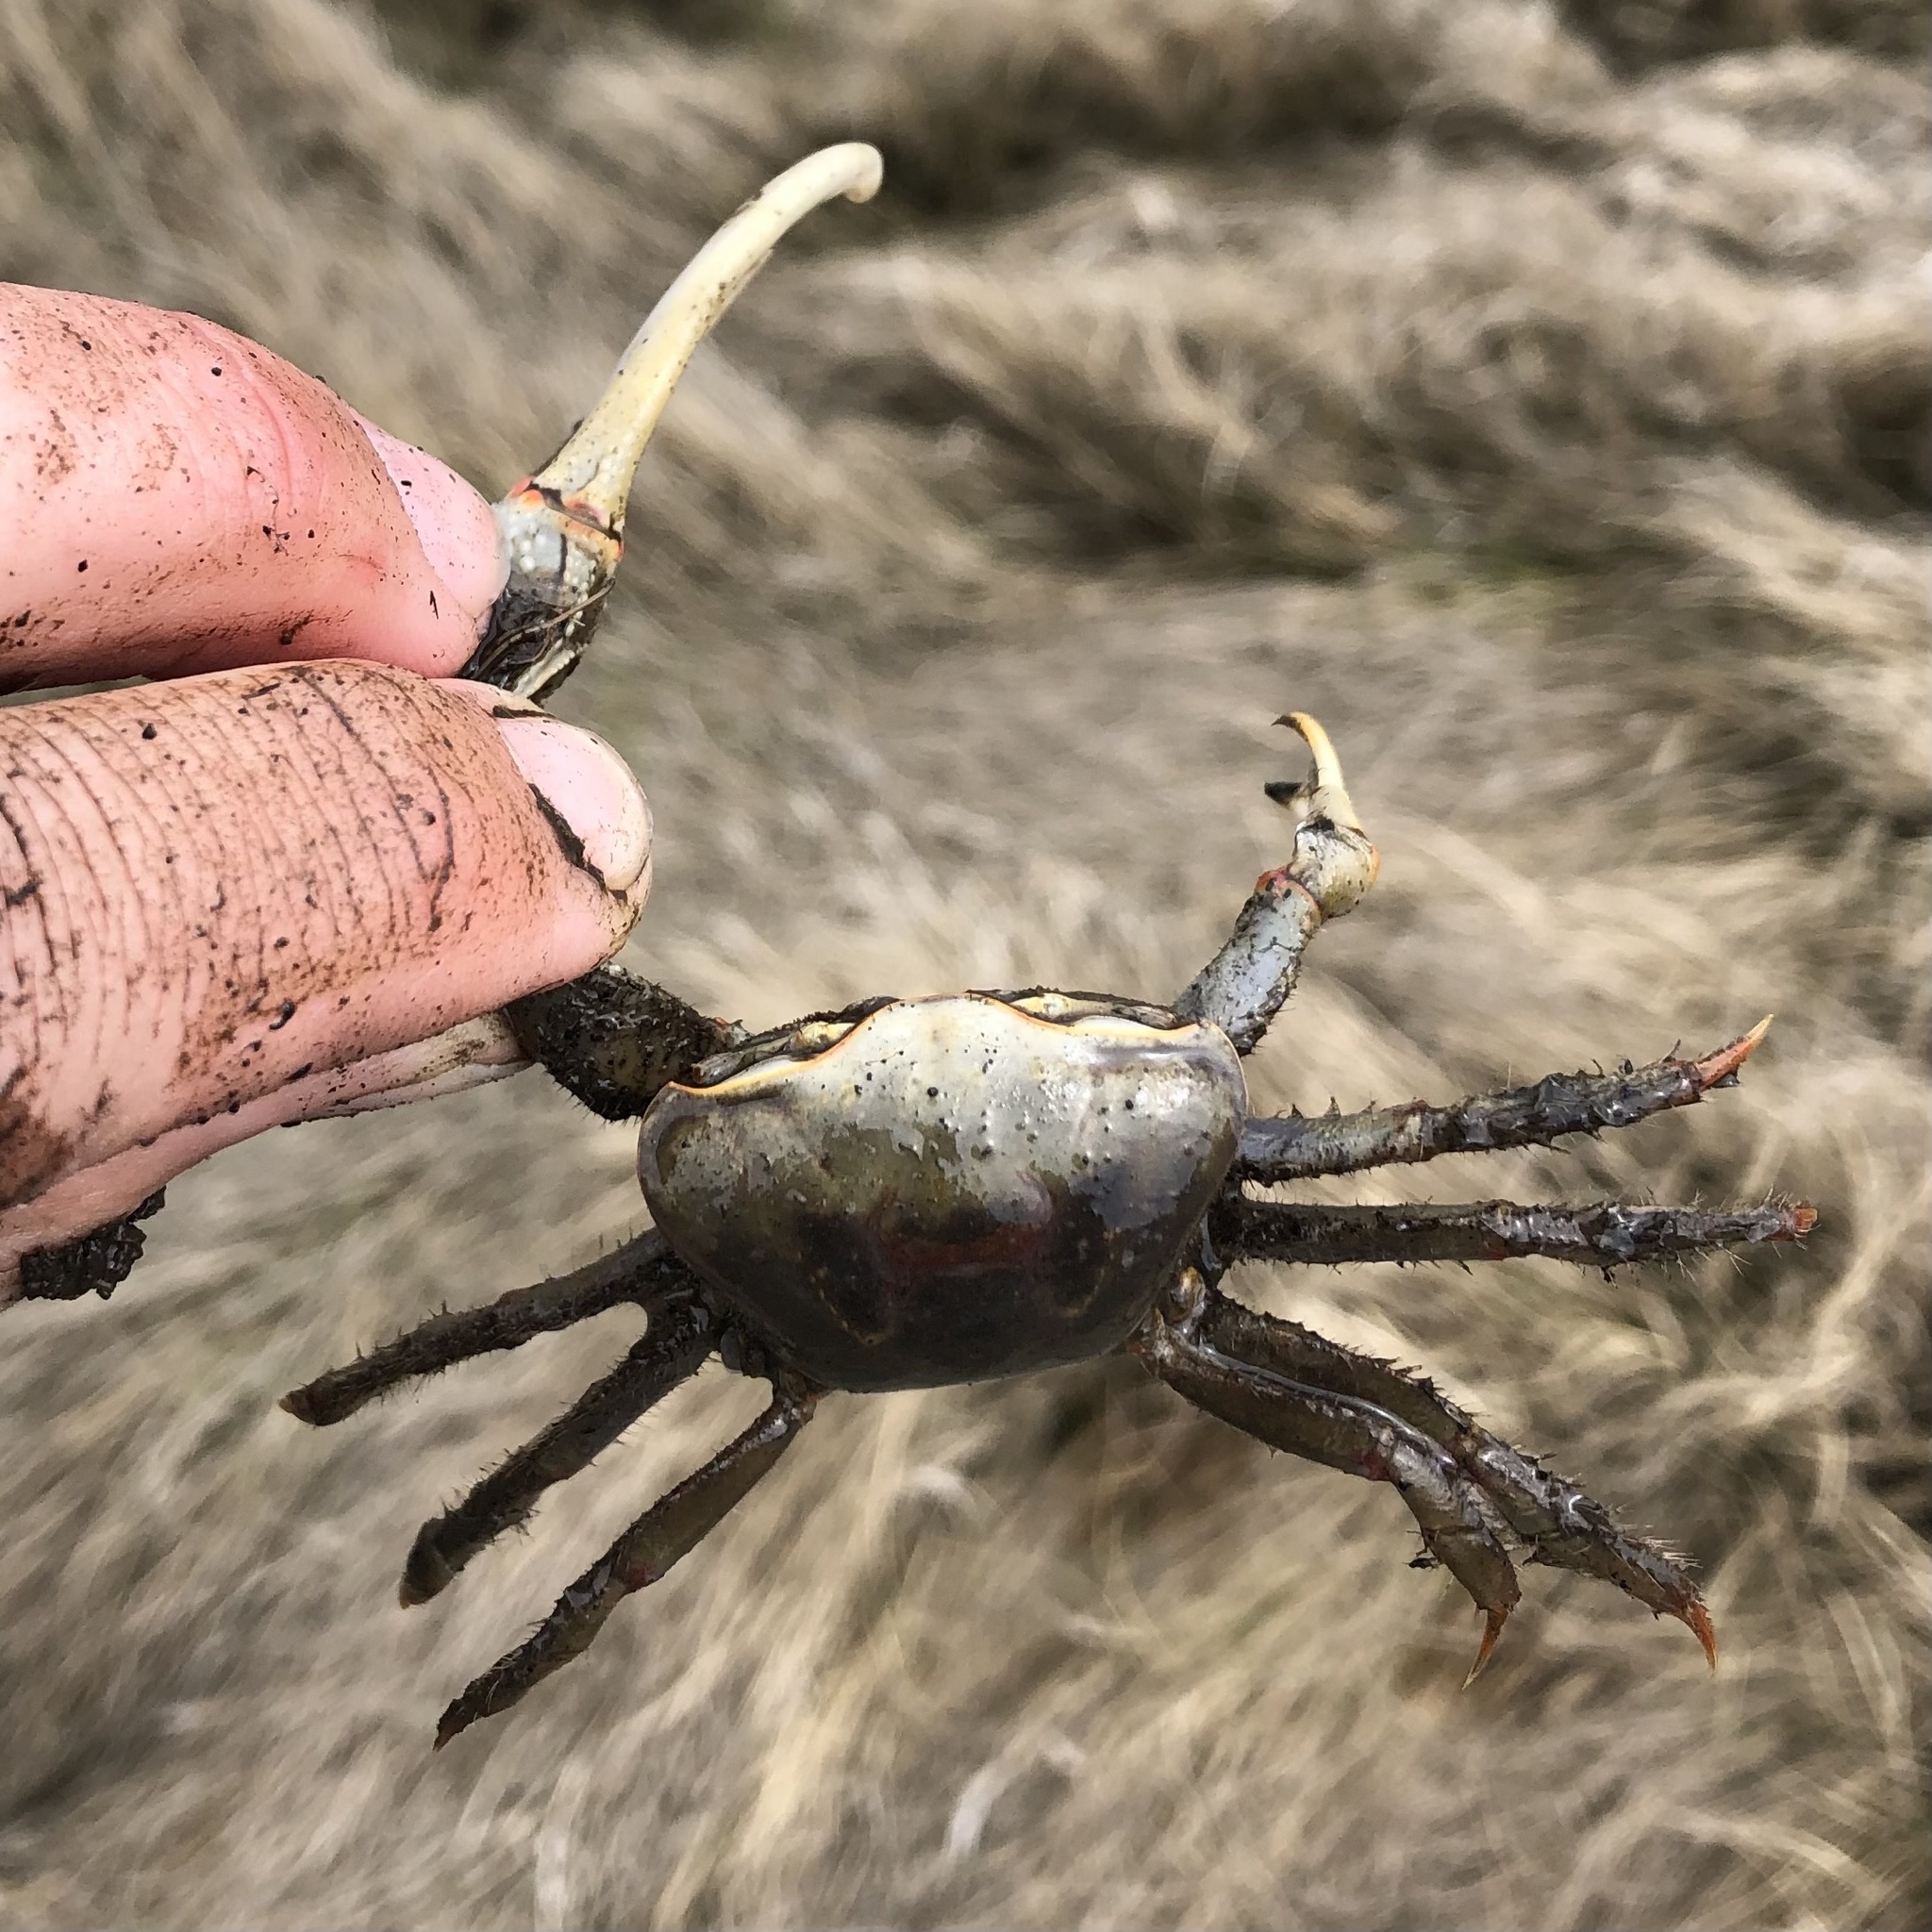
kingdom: Animalia
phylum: Arthropoda
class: Malacostraca
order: Decapoda
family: Ocypodidae
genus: Minuca
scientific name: Minuca minax
